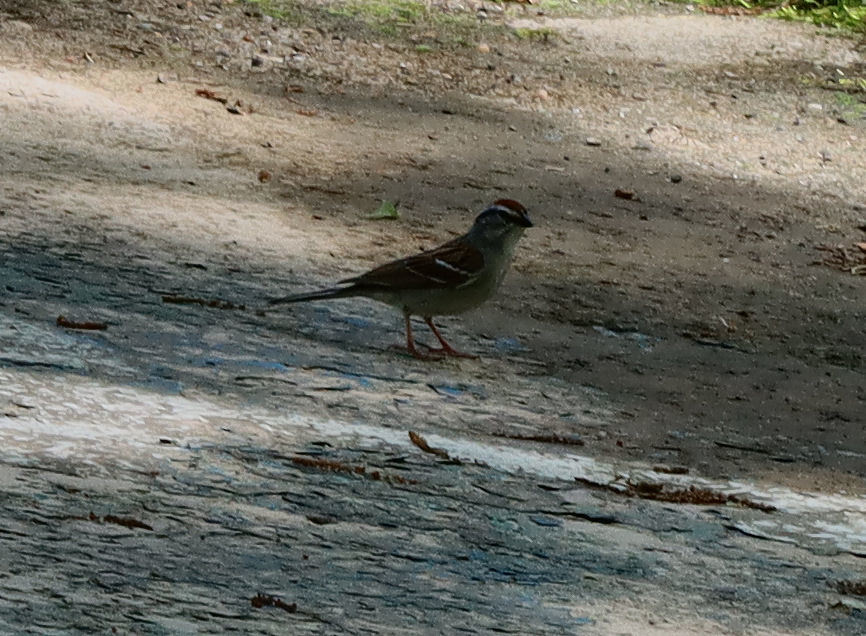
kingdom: Animalia
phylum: Chordata
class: Aves
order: Passeriformes
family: Passerellidae
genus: Spizella
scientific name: Spizella passerina
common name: Chipping sparrow
